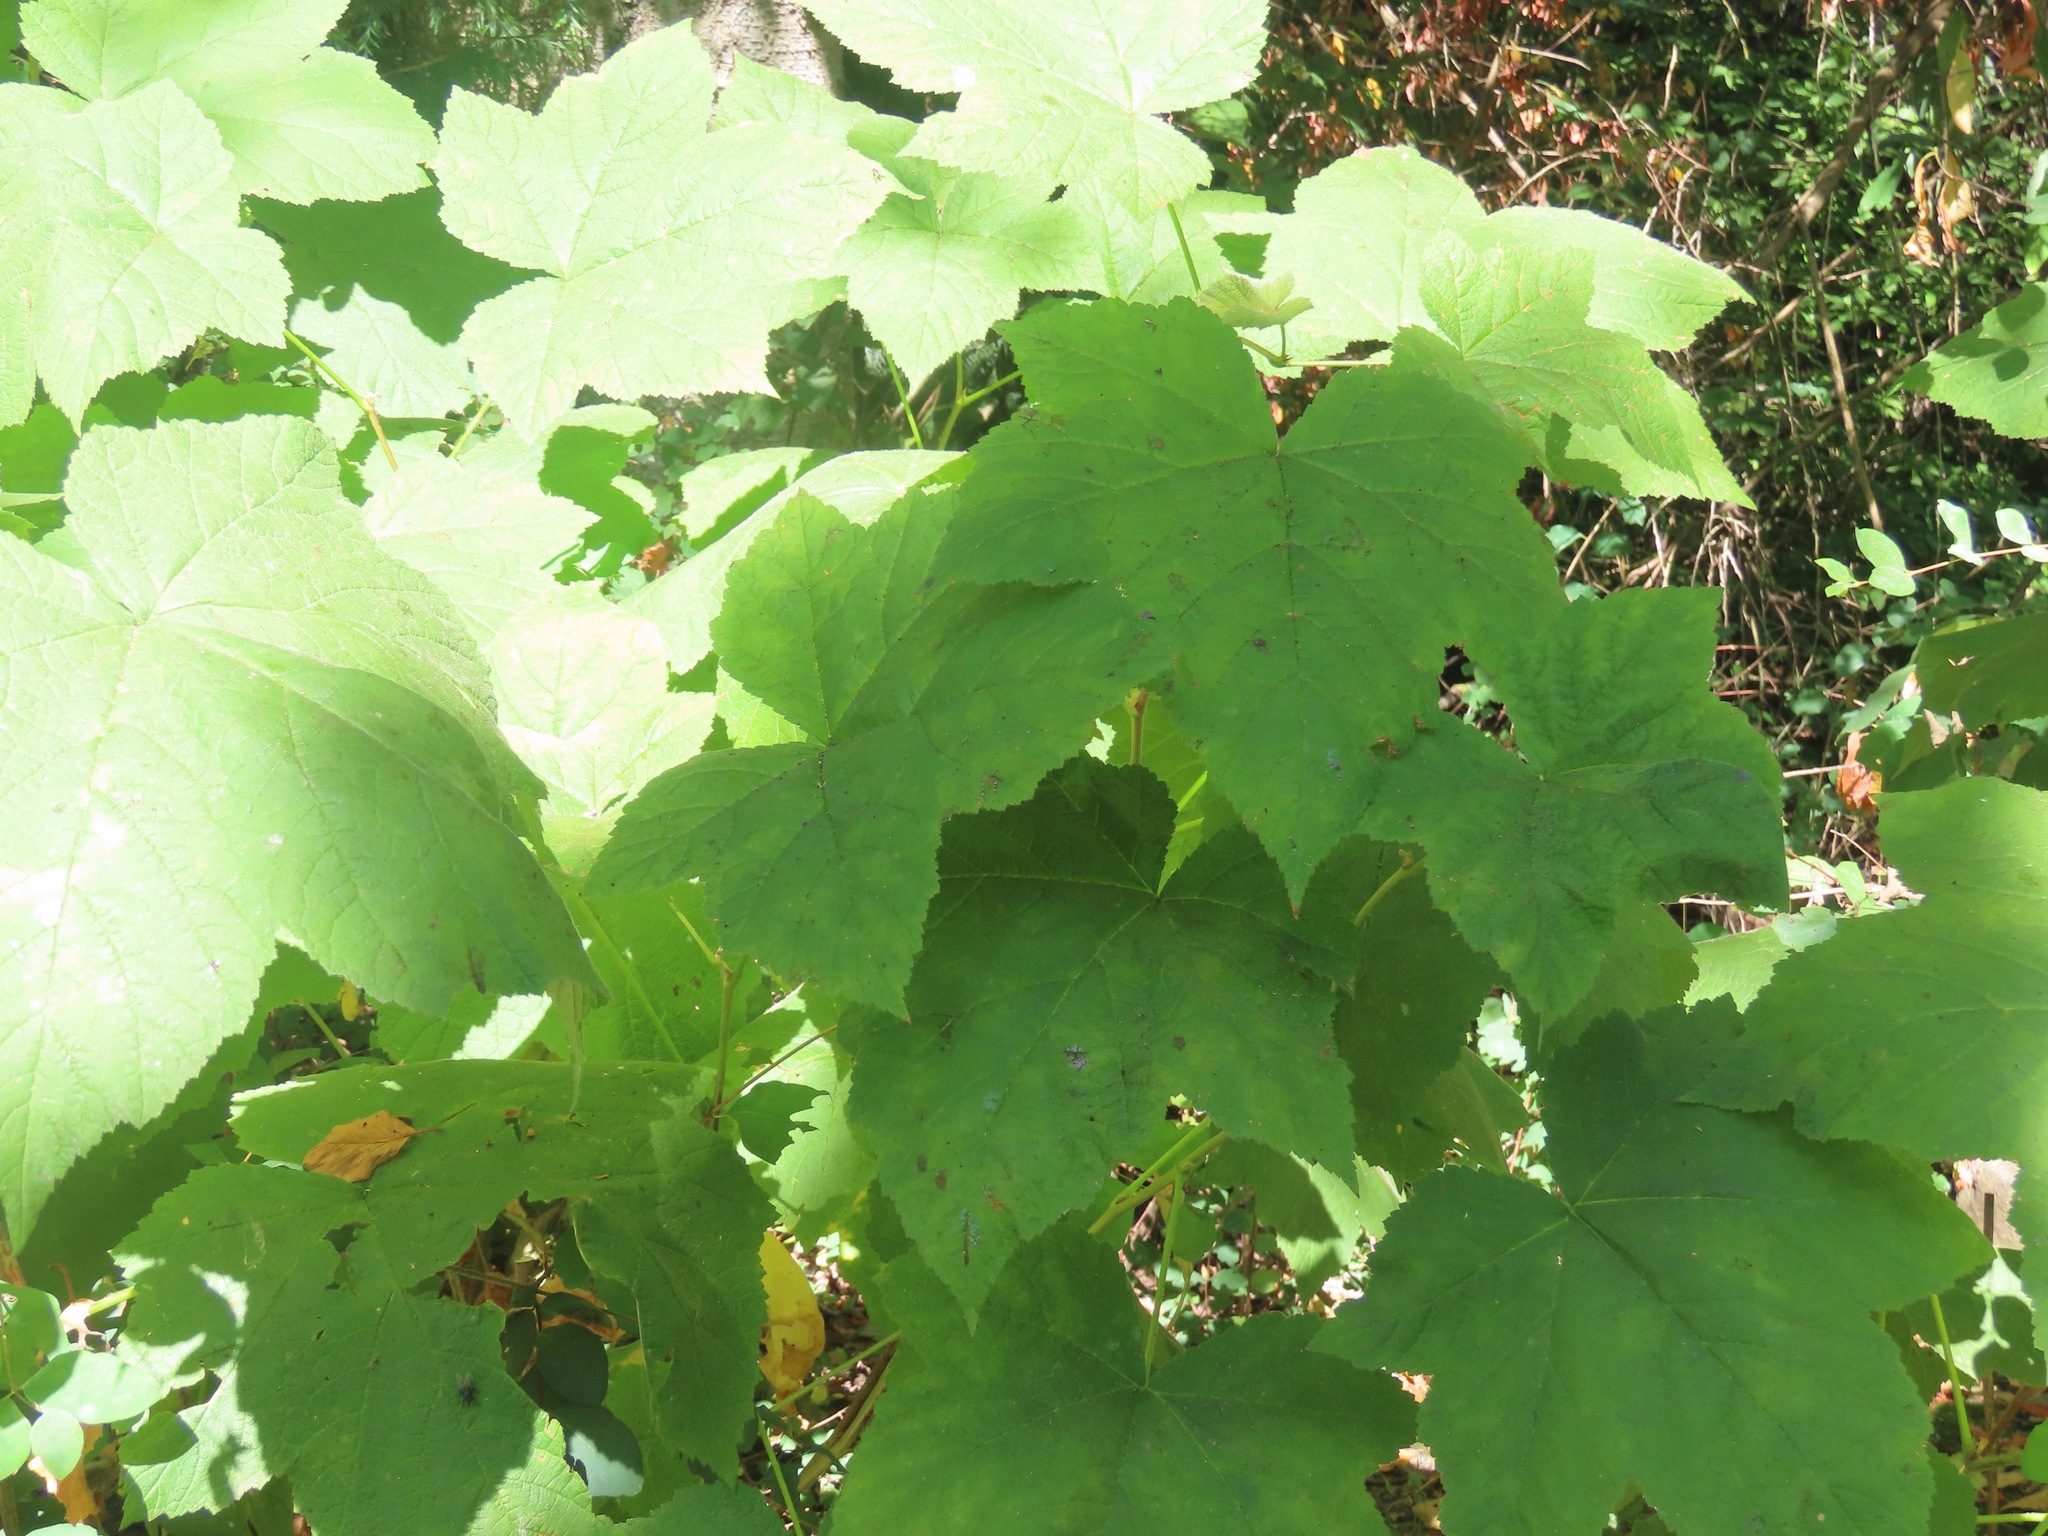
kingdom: Plantae
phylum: Tracheophyta
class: Magnoliopsida
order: Rosales
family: Rosaceae
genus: Rubus
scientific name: Rubus parviflorus
